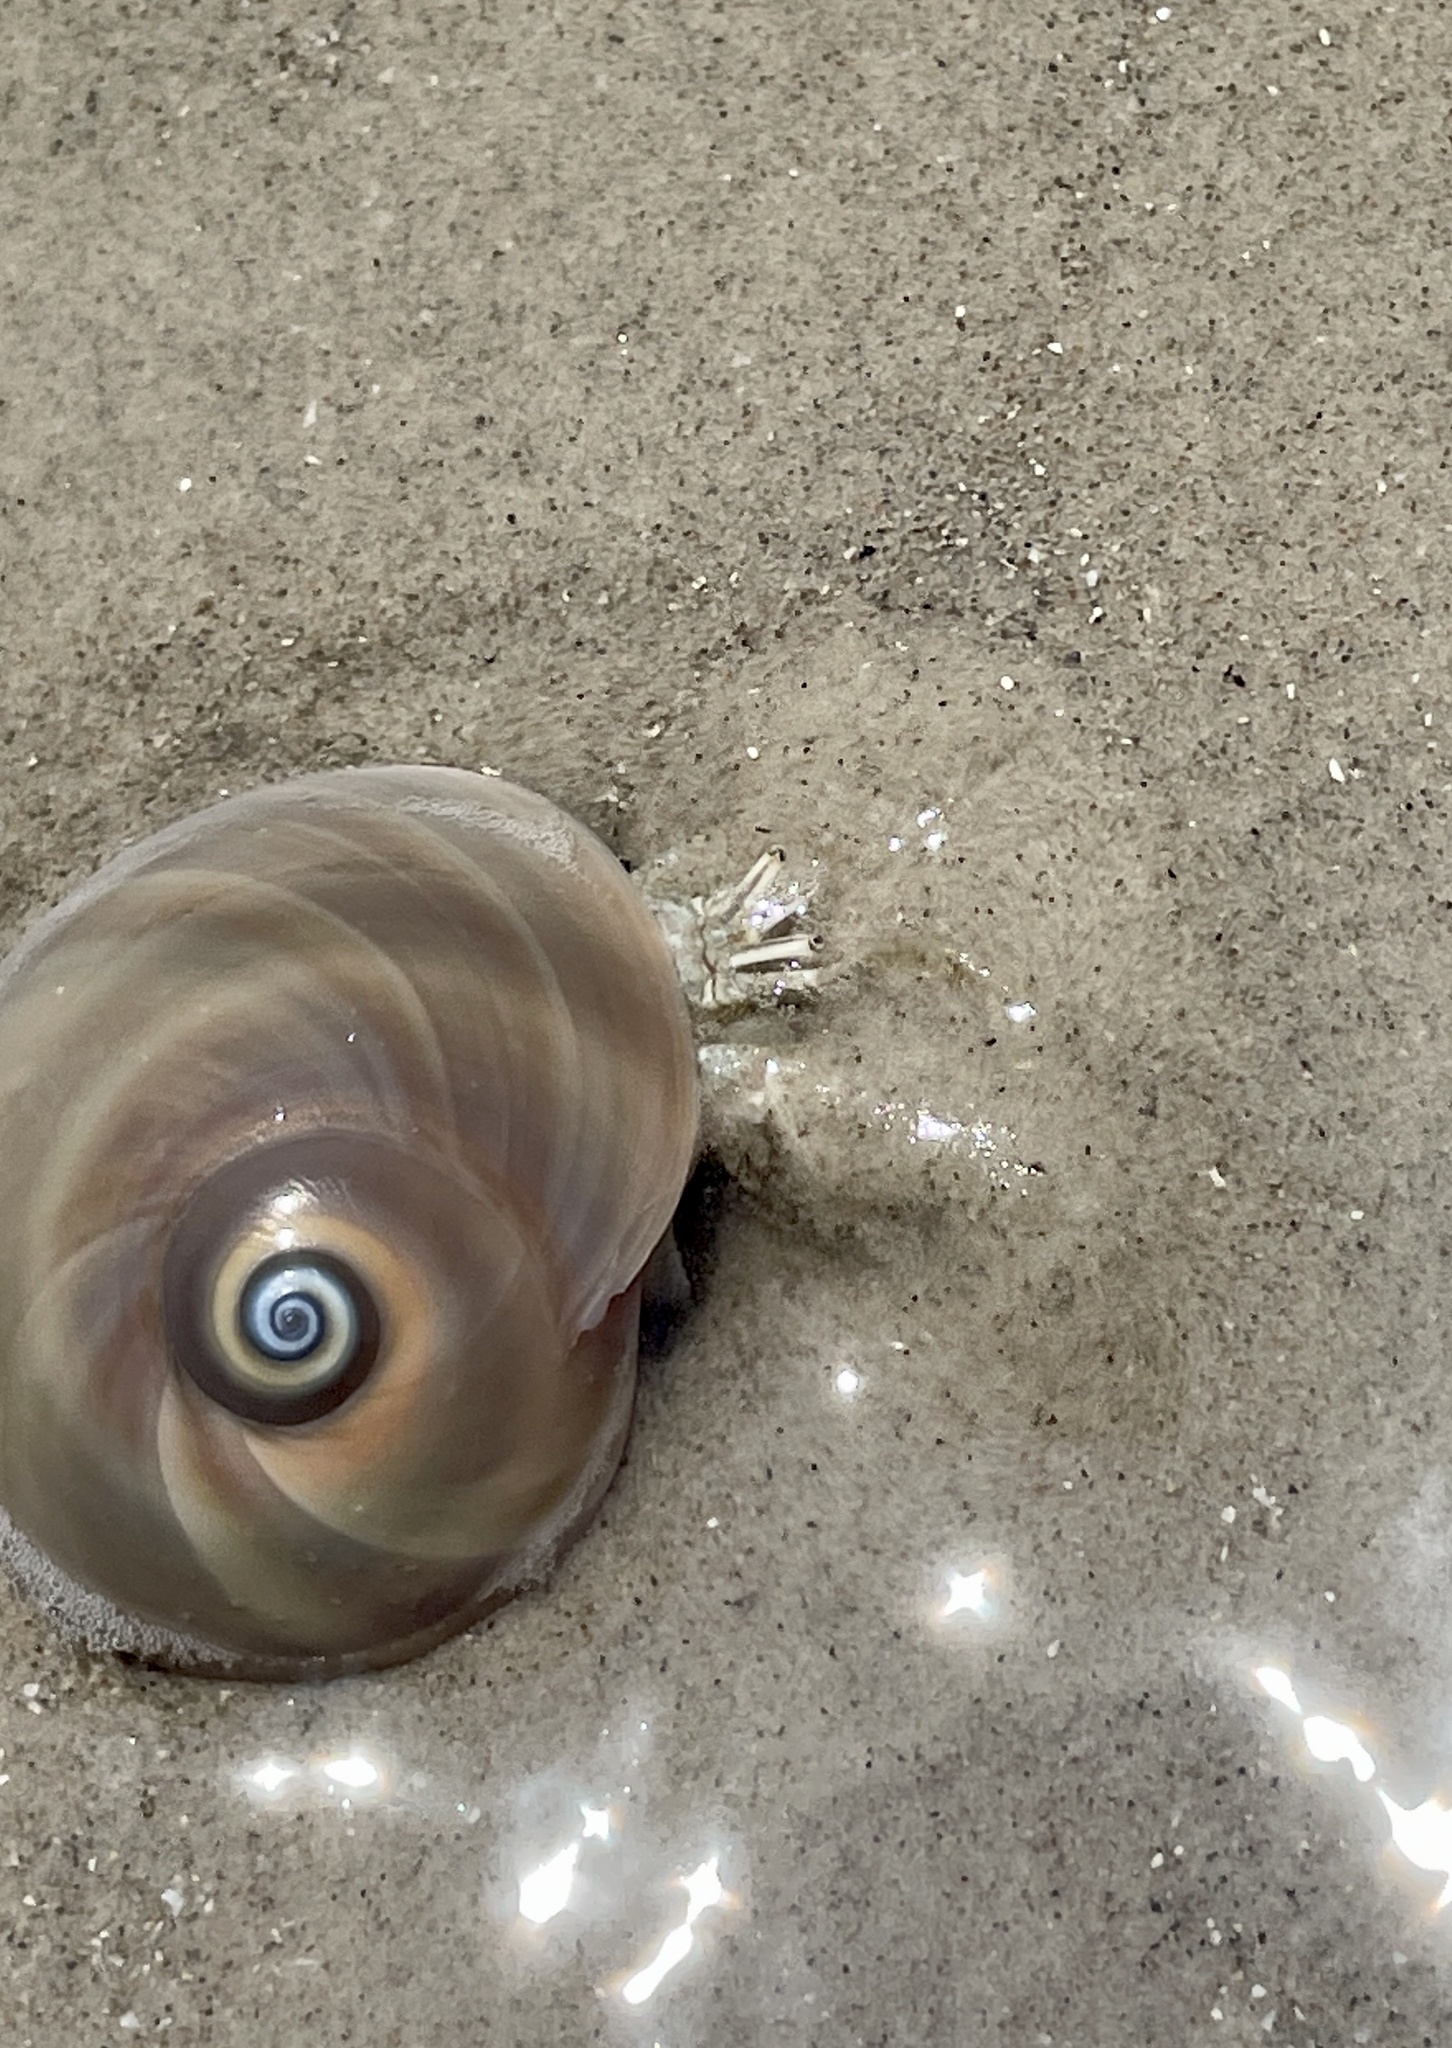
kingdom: Animalia
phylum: Arthropoda
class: Malacostraca
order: Decapoda
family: Diogenidae
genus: Isocheles
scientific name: Isocheles wurdemanni
